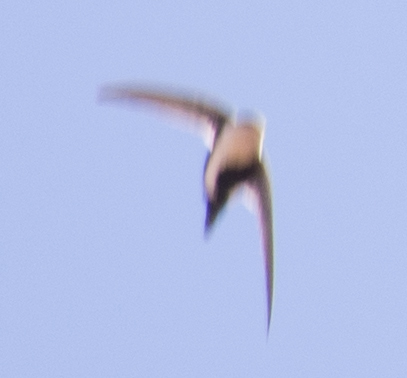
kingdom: Animalia
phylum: Chordata
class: Aves
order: Apodiformes
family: Apodidae
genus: Aeronautes
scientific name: Aeronautes saxatalis
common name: White-throated swift
